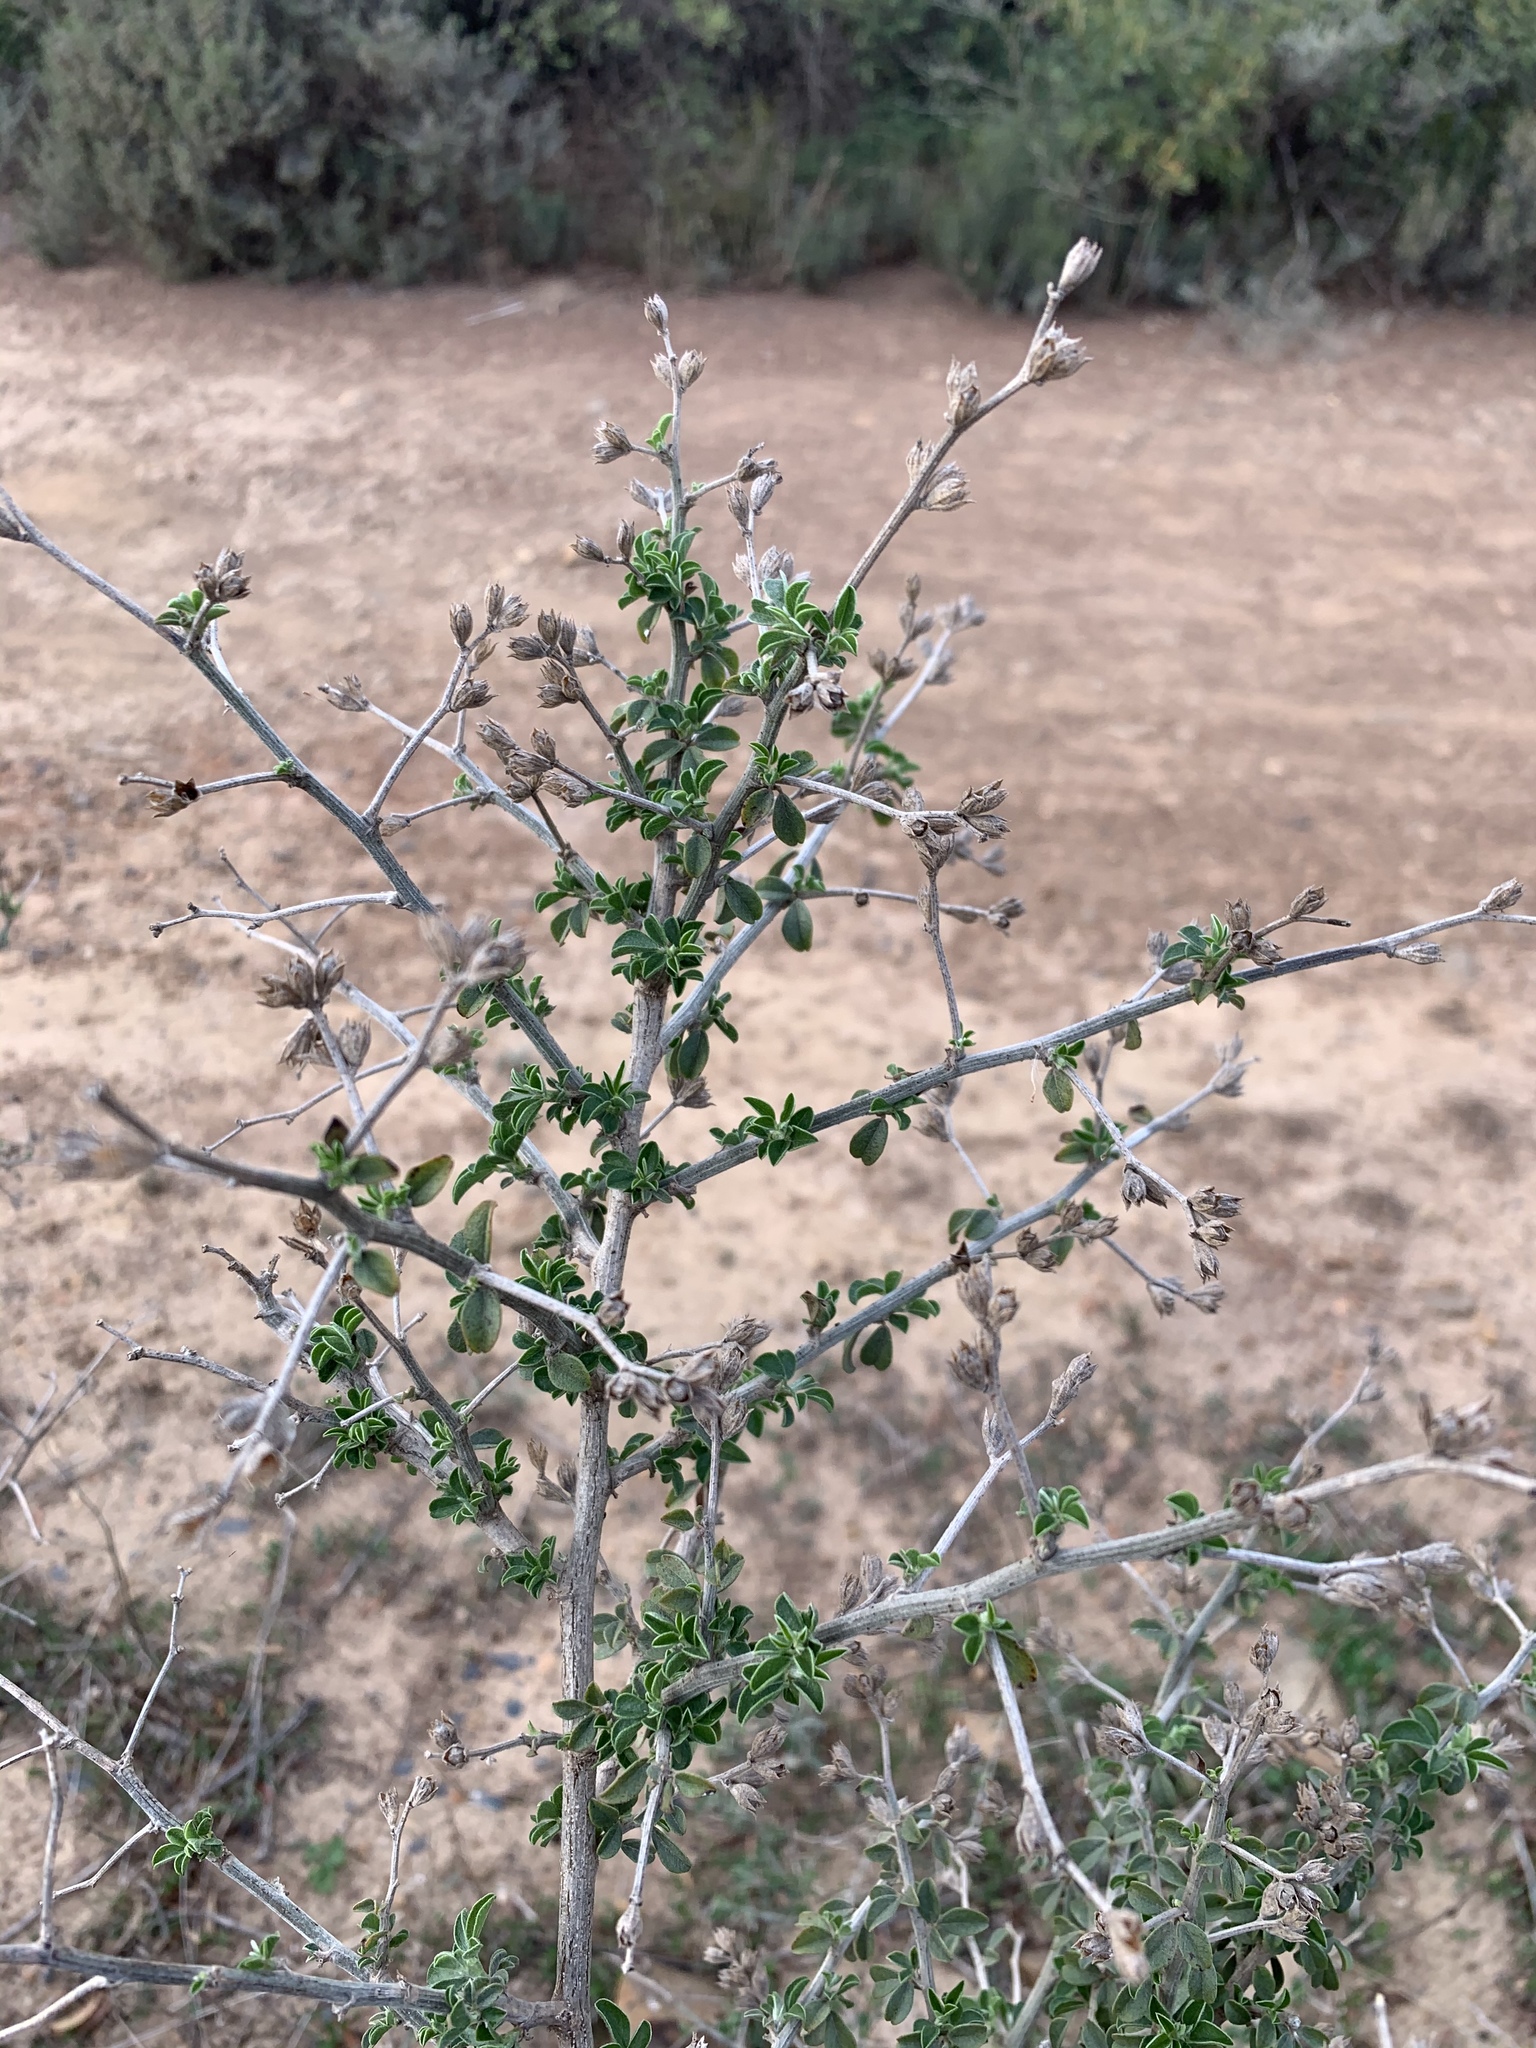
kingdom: Plantae
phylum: Tracheophyta
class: Magnoliopsida
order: Fabales
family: Fabaceae
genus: Psoralea
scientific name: Psoralea hirta
